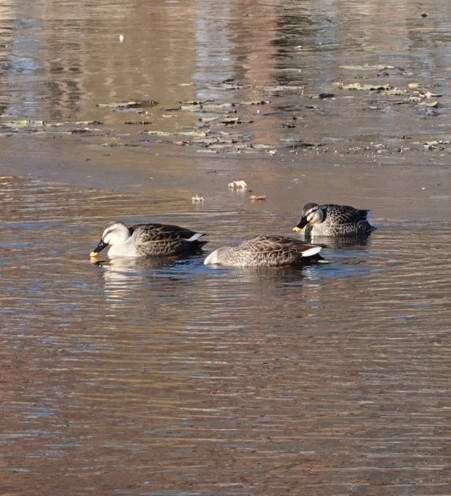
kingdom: Animalia
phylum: Chordata
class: Aves
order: Anseriformes
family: Anatidae
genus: Anas
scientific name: Anas zonorhyncha
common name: Eastern spot-billed duck
